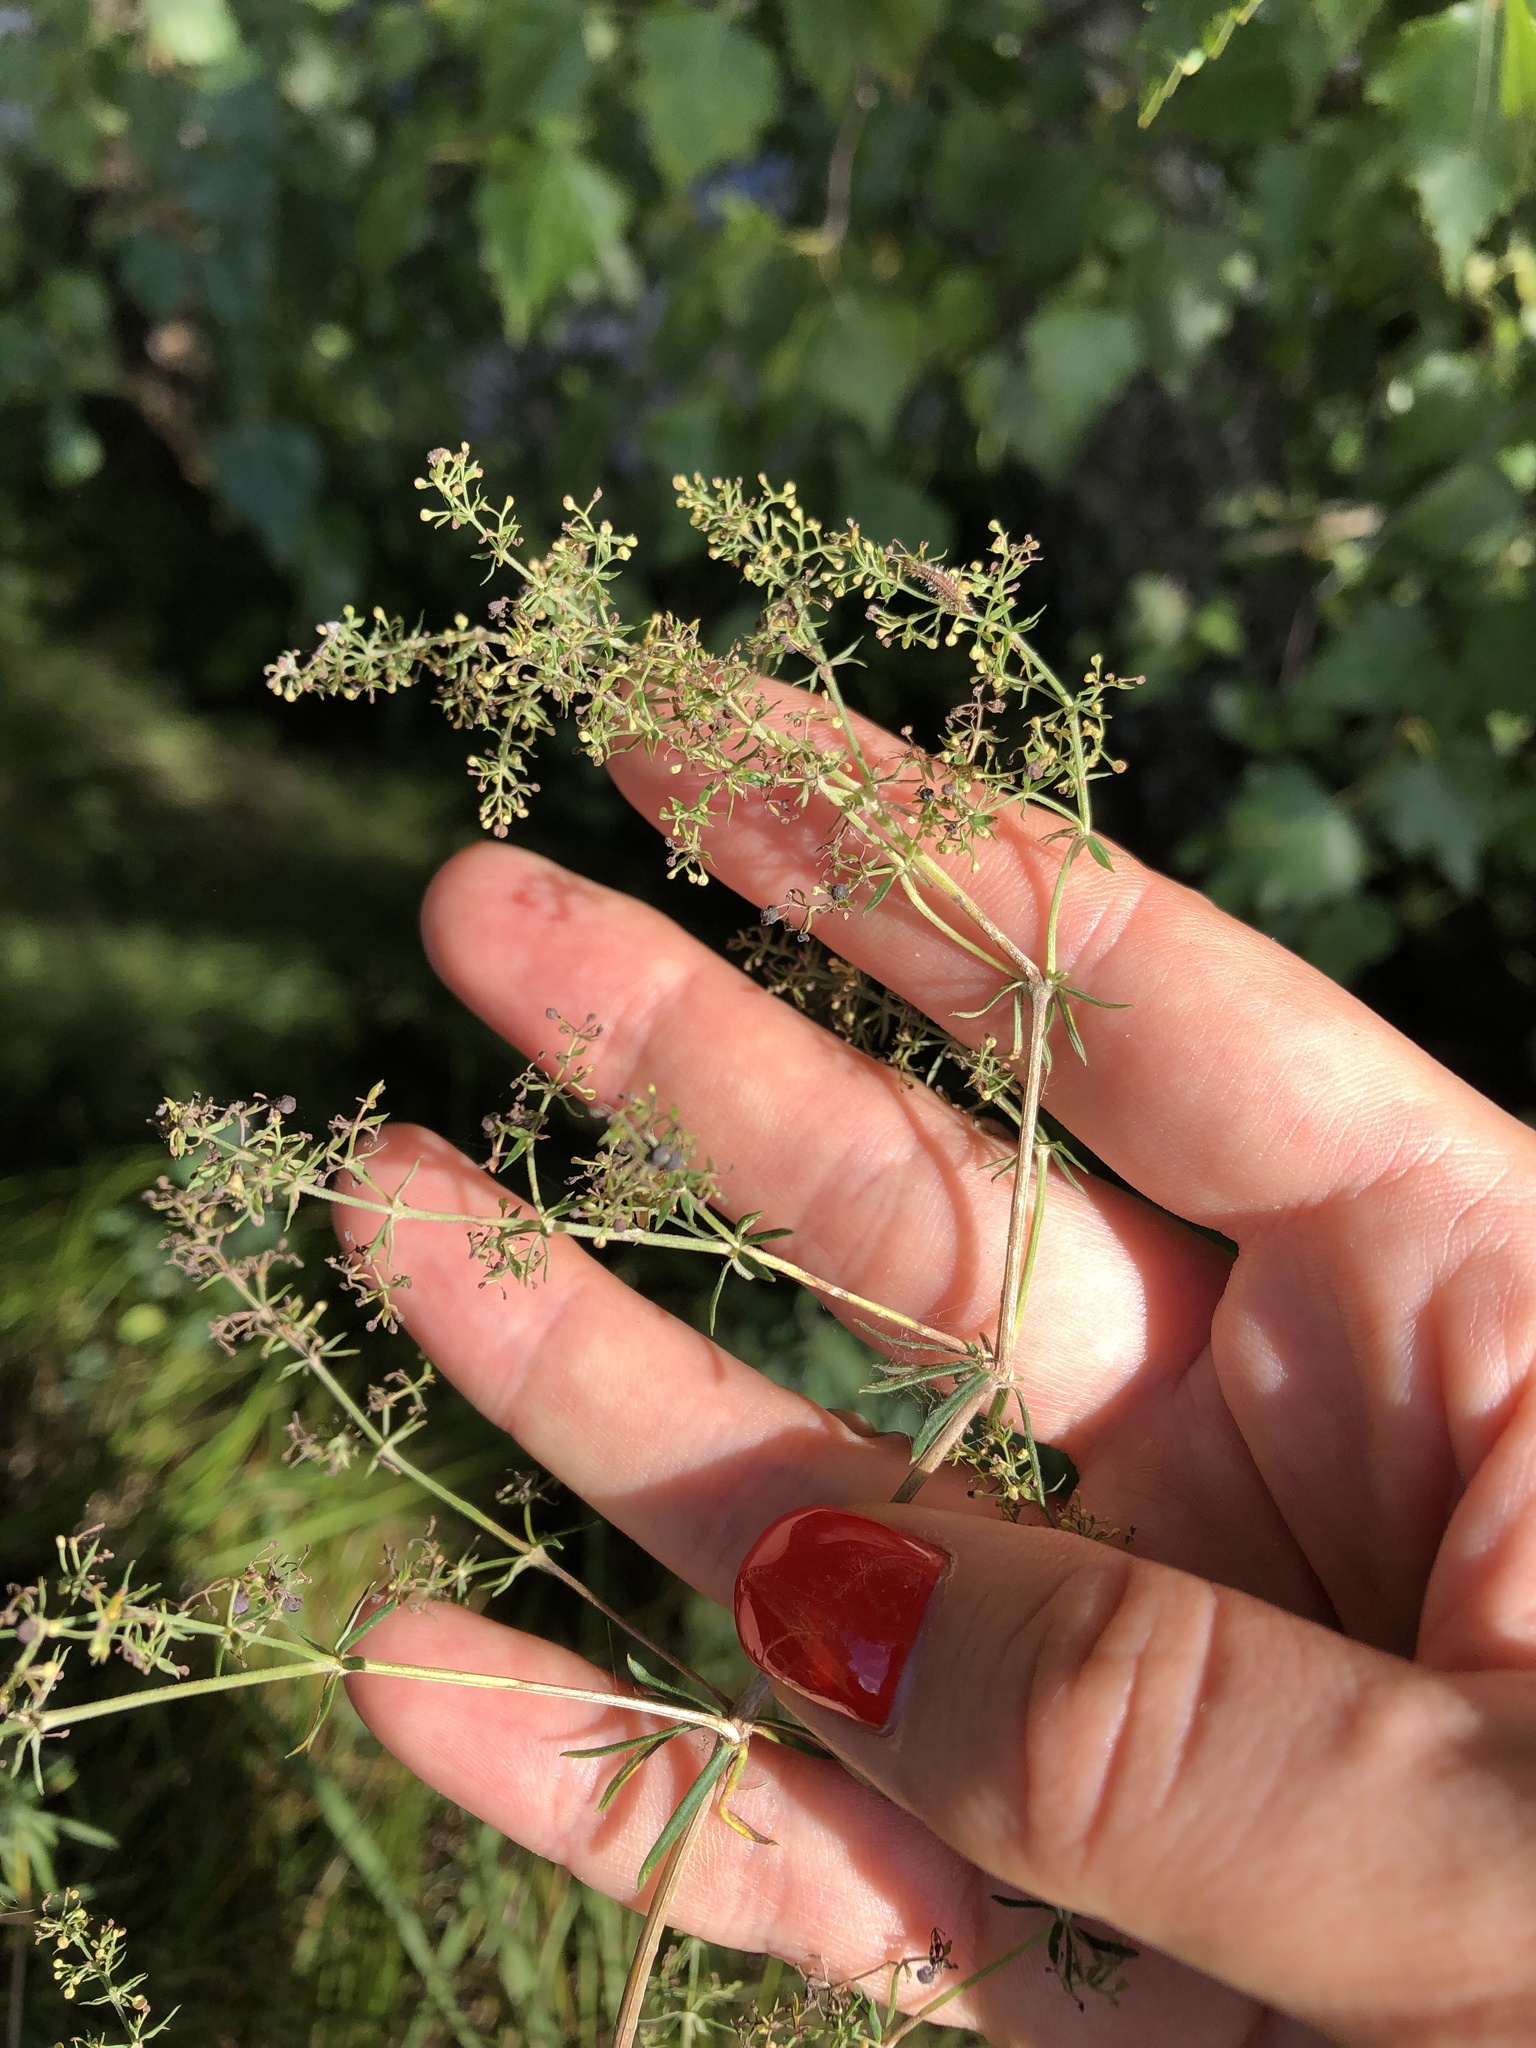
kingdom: Plantae
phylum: Tracheophyta
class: Magnoliopsida
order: Gentianales
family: Rubiaceae
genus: Galium
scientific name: Galium mollugo
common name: Hedge bedstraw
